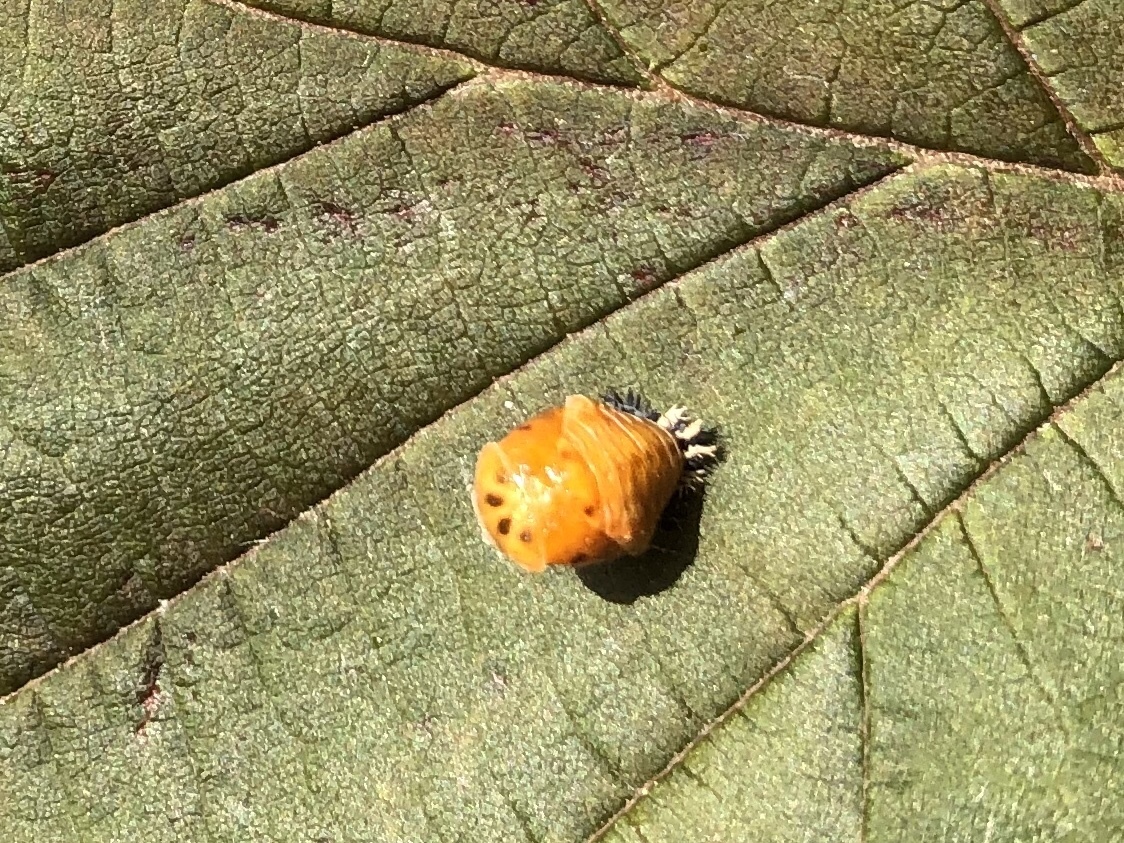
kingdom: Animalia
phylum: Arthropoda
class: Insecta
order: Coleoptera
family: Coccinellidae
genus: Harmonia
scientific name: Harmonia axyridis
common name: Harlequin ladybird
